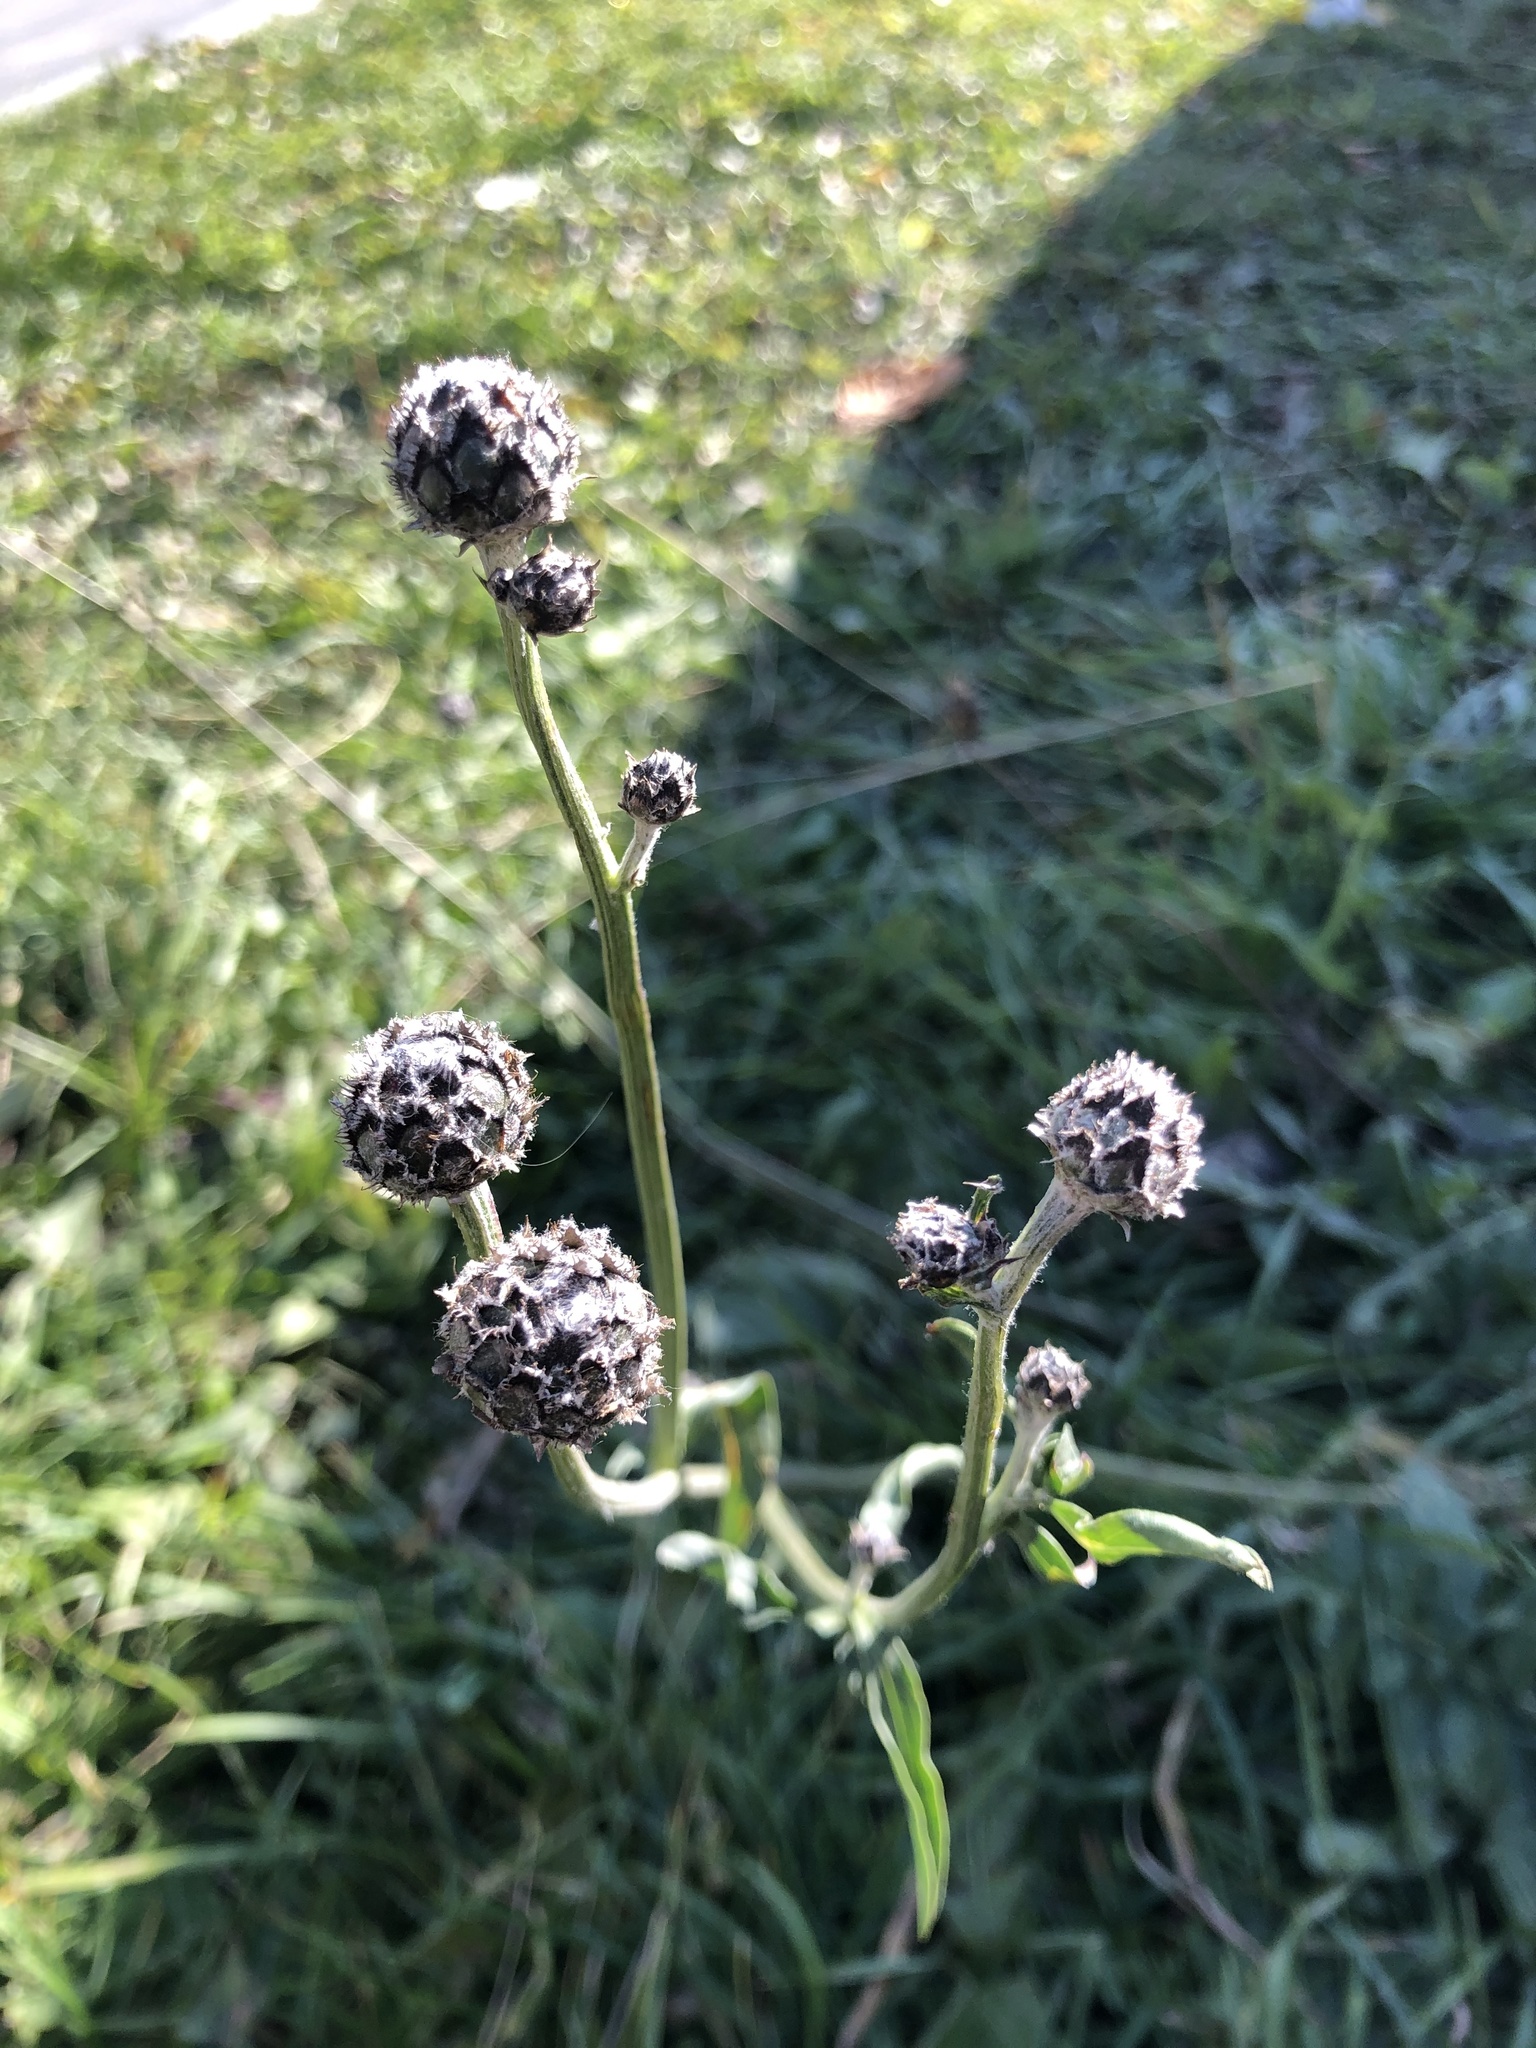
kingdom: Plantae
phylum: Tracheophyta
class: Magnoliopsida
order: Asterales
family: Asteraceae
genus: Centaurea
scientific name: Centaurea scabiosa
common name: Greater knapweed
